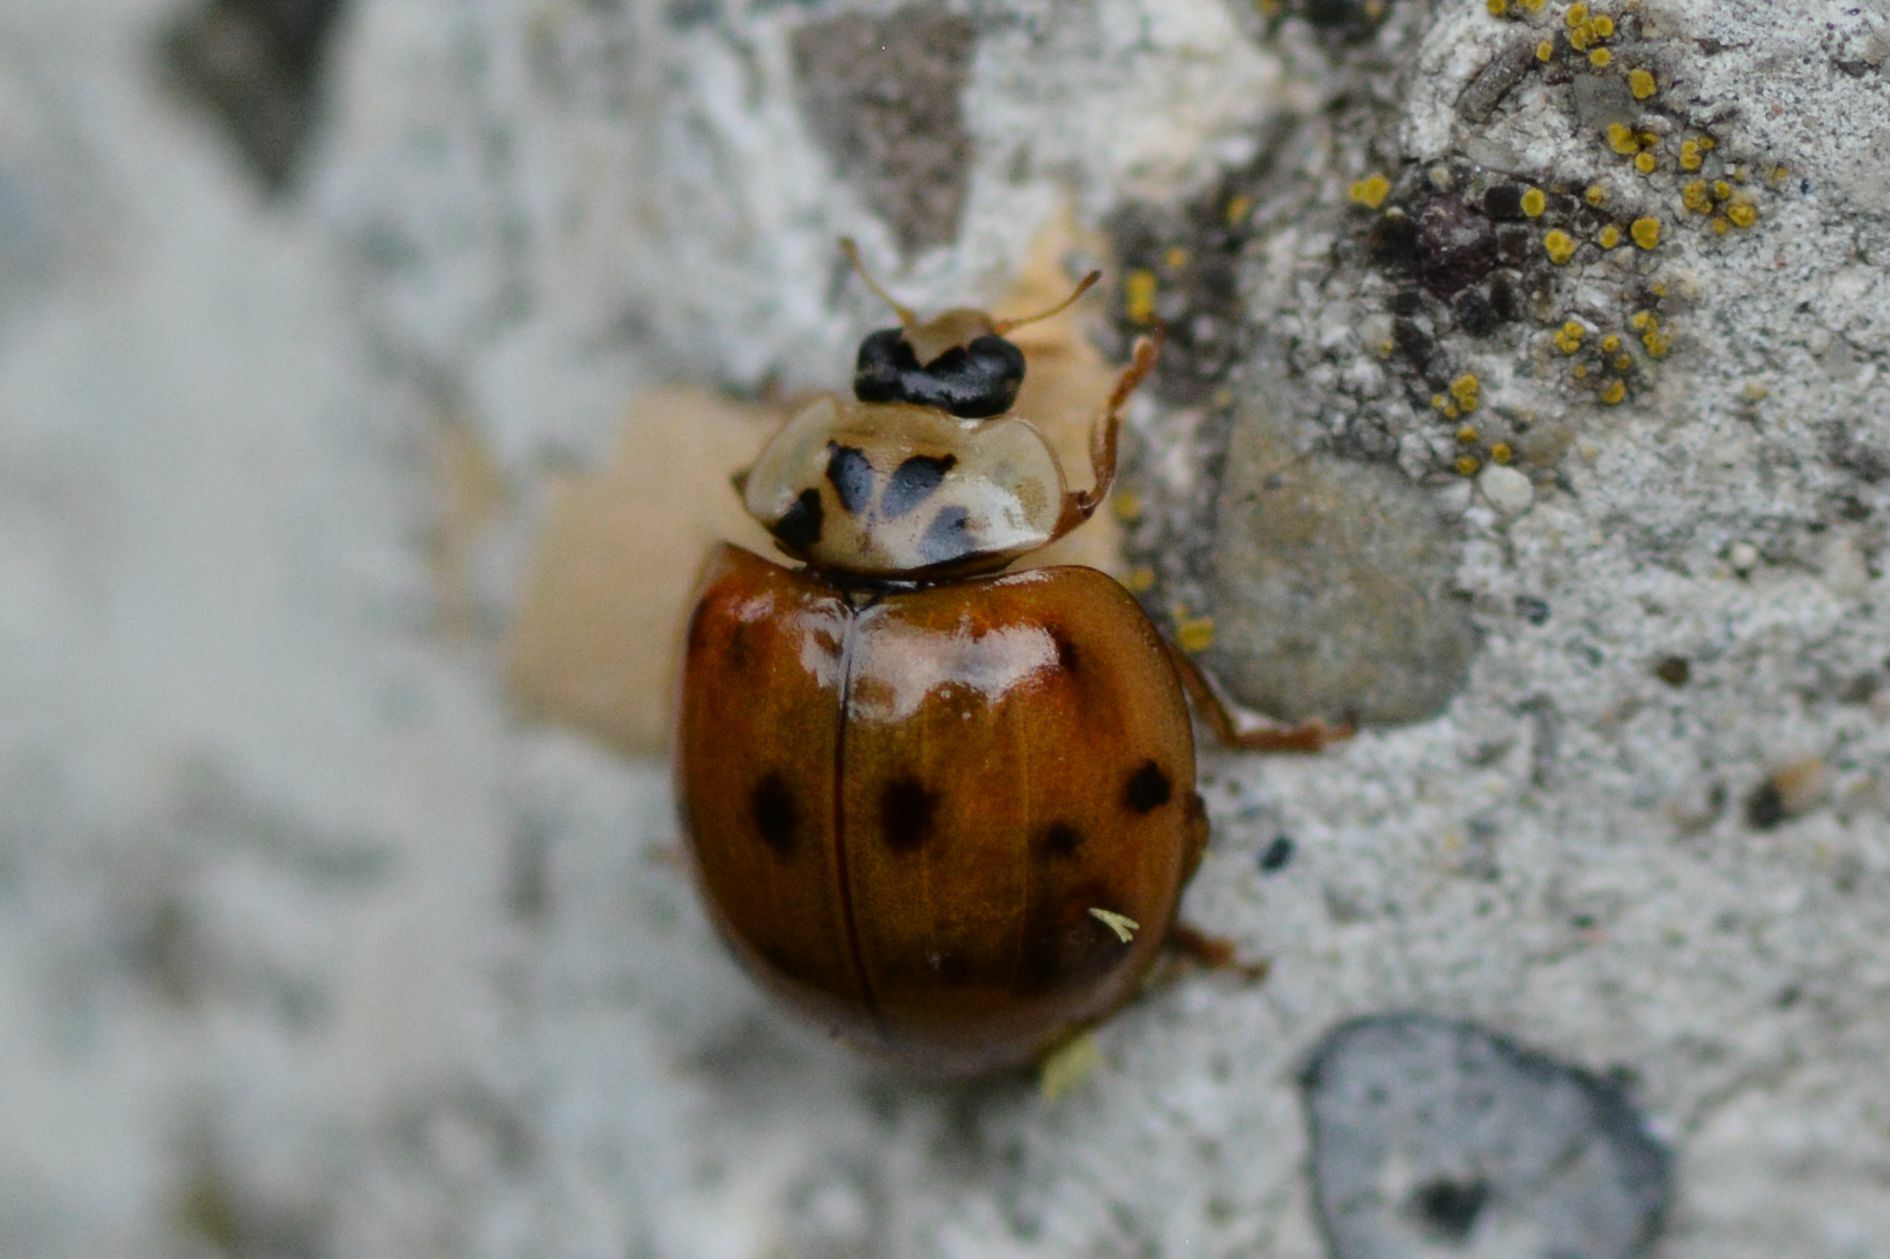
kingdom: Animalia
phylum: Arthropoda
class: Insecta
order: Coleoptera
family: Coccinellidae
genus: Harmonia
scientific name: Harmonia axyridis
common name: Harlequin ladybird
